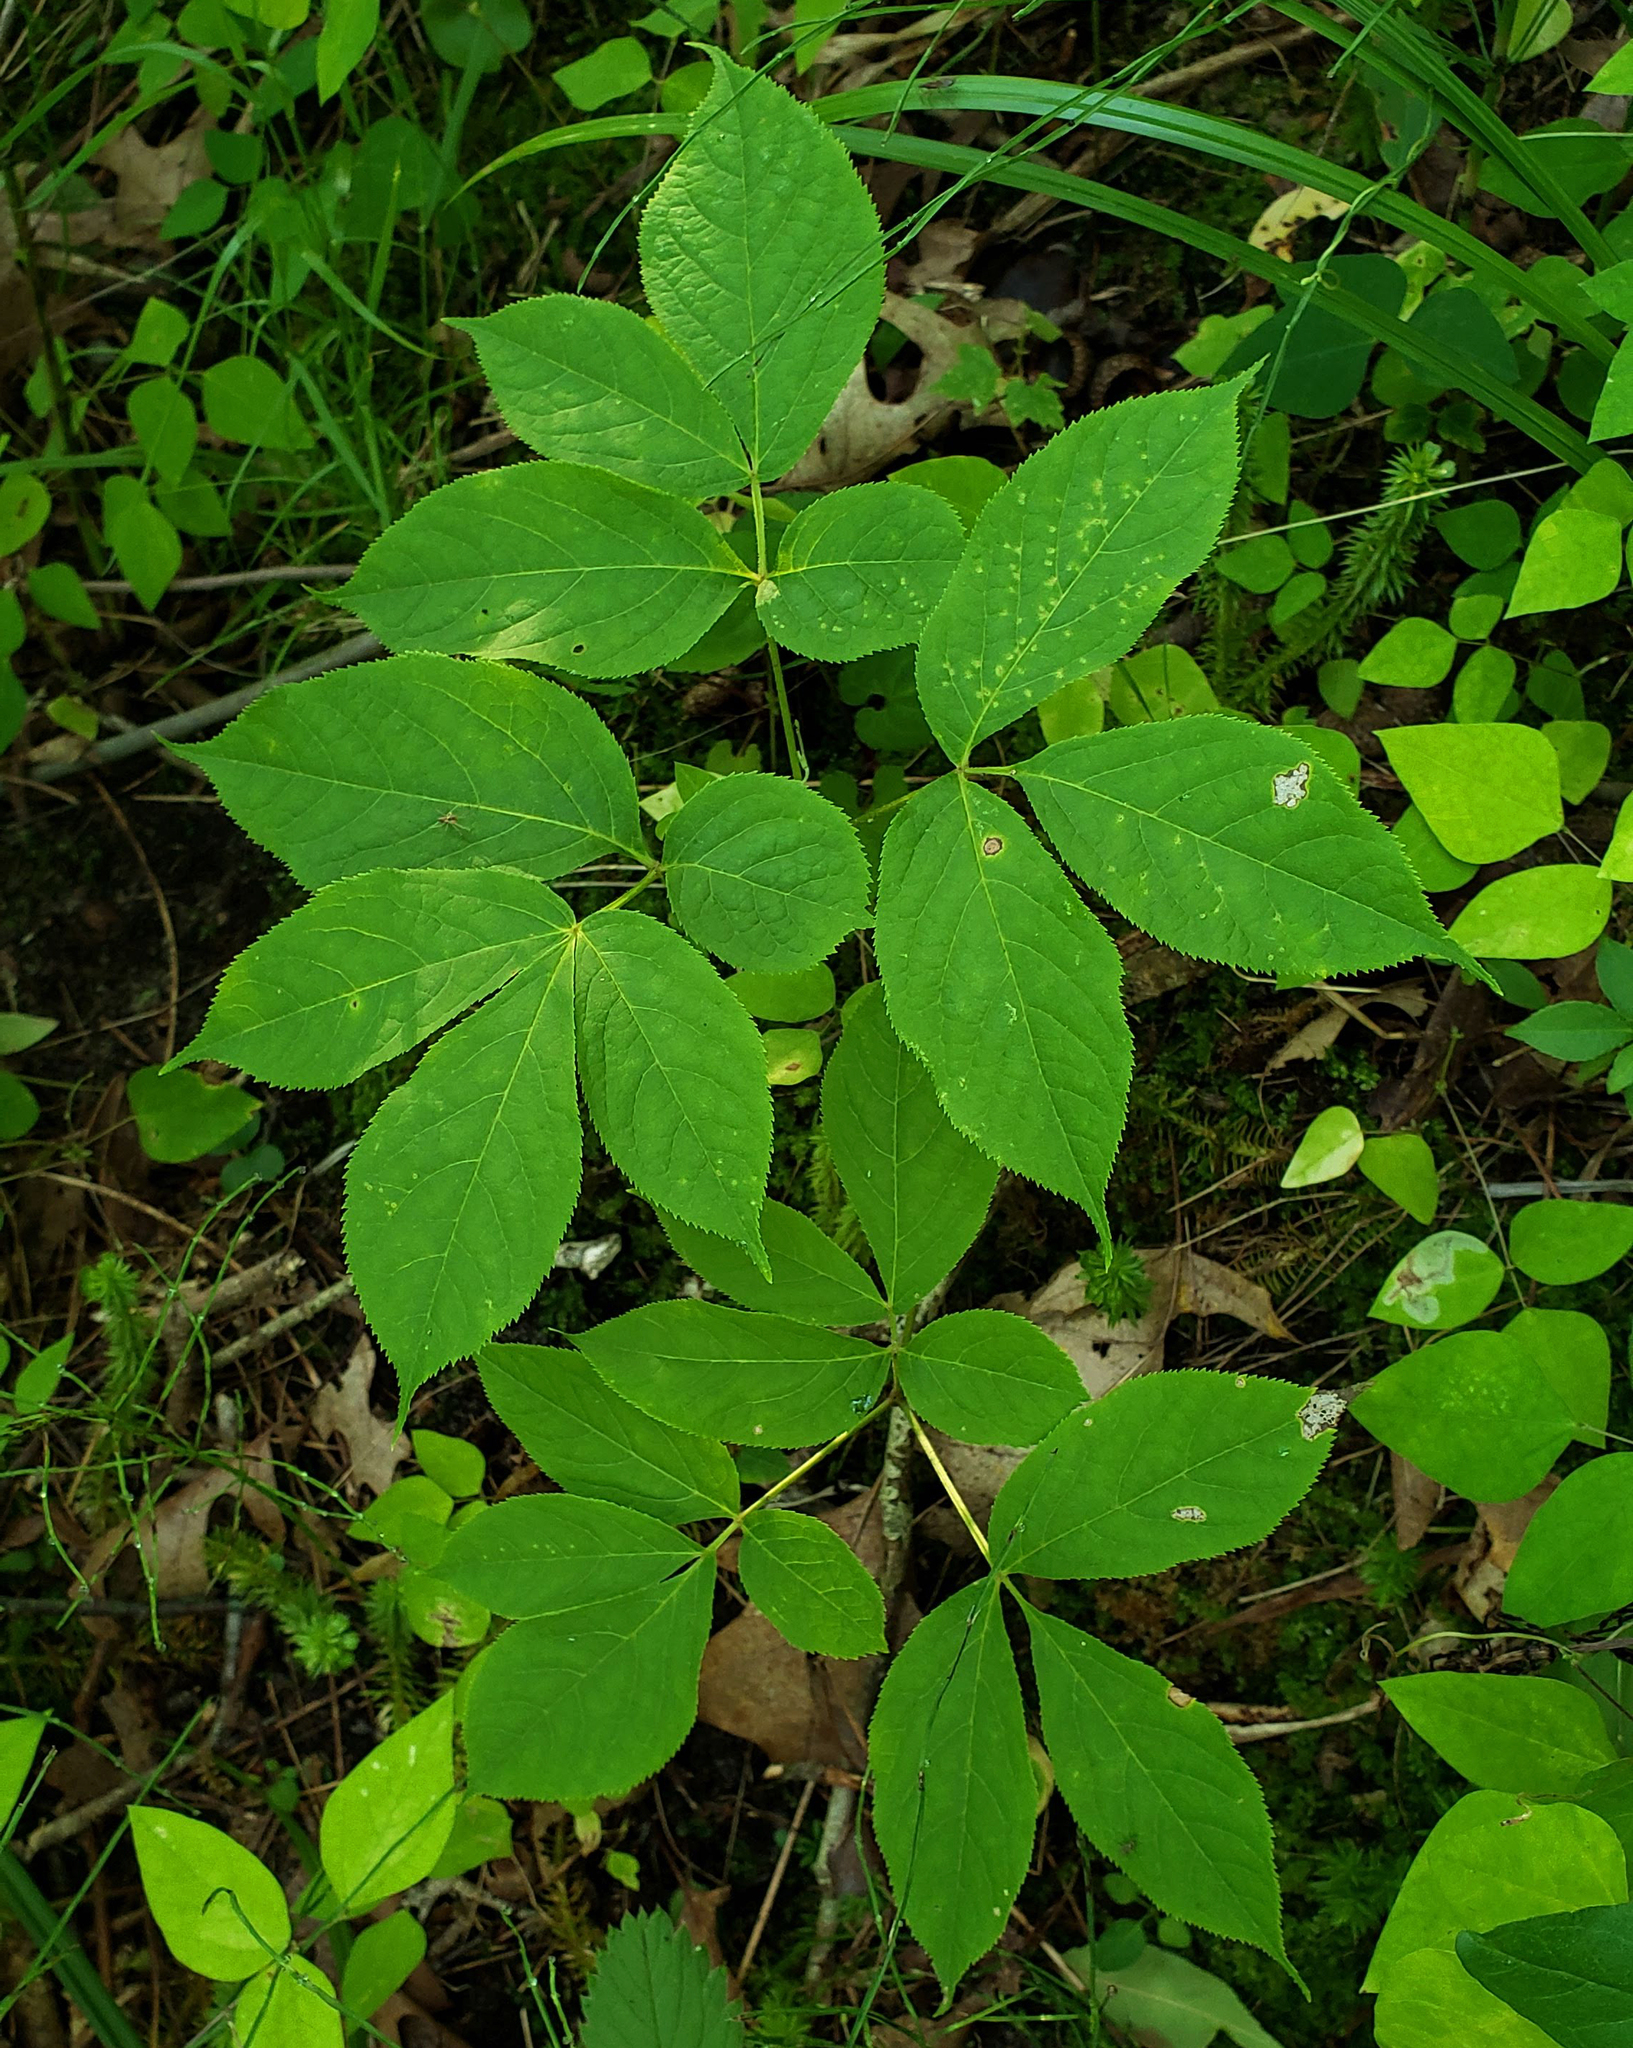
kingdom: Plantae
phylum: Tracheophyta
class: Magnoliopsida
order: Apiales
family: Araliaceae
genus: Aralia
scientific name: Aralia nudicaulis
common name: Wild sarsaparilla
